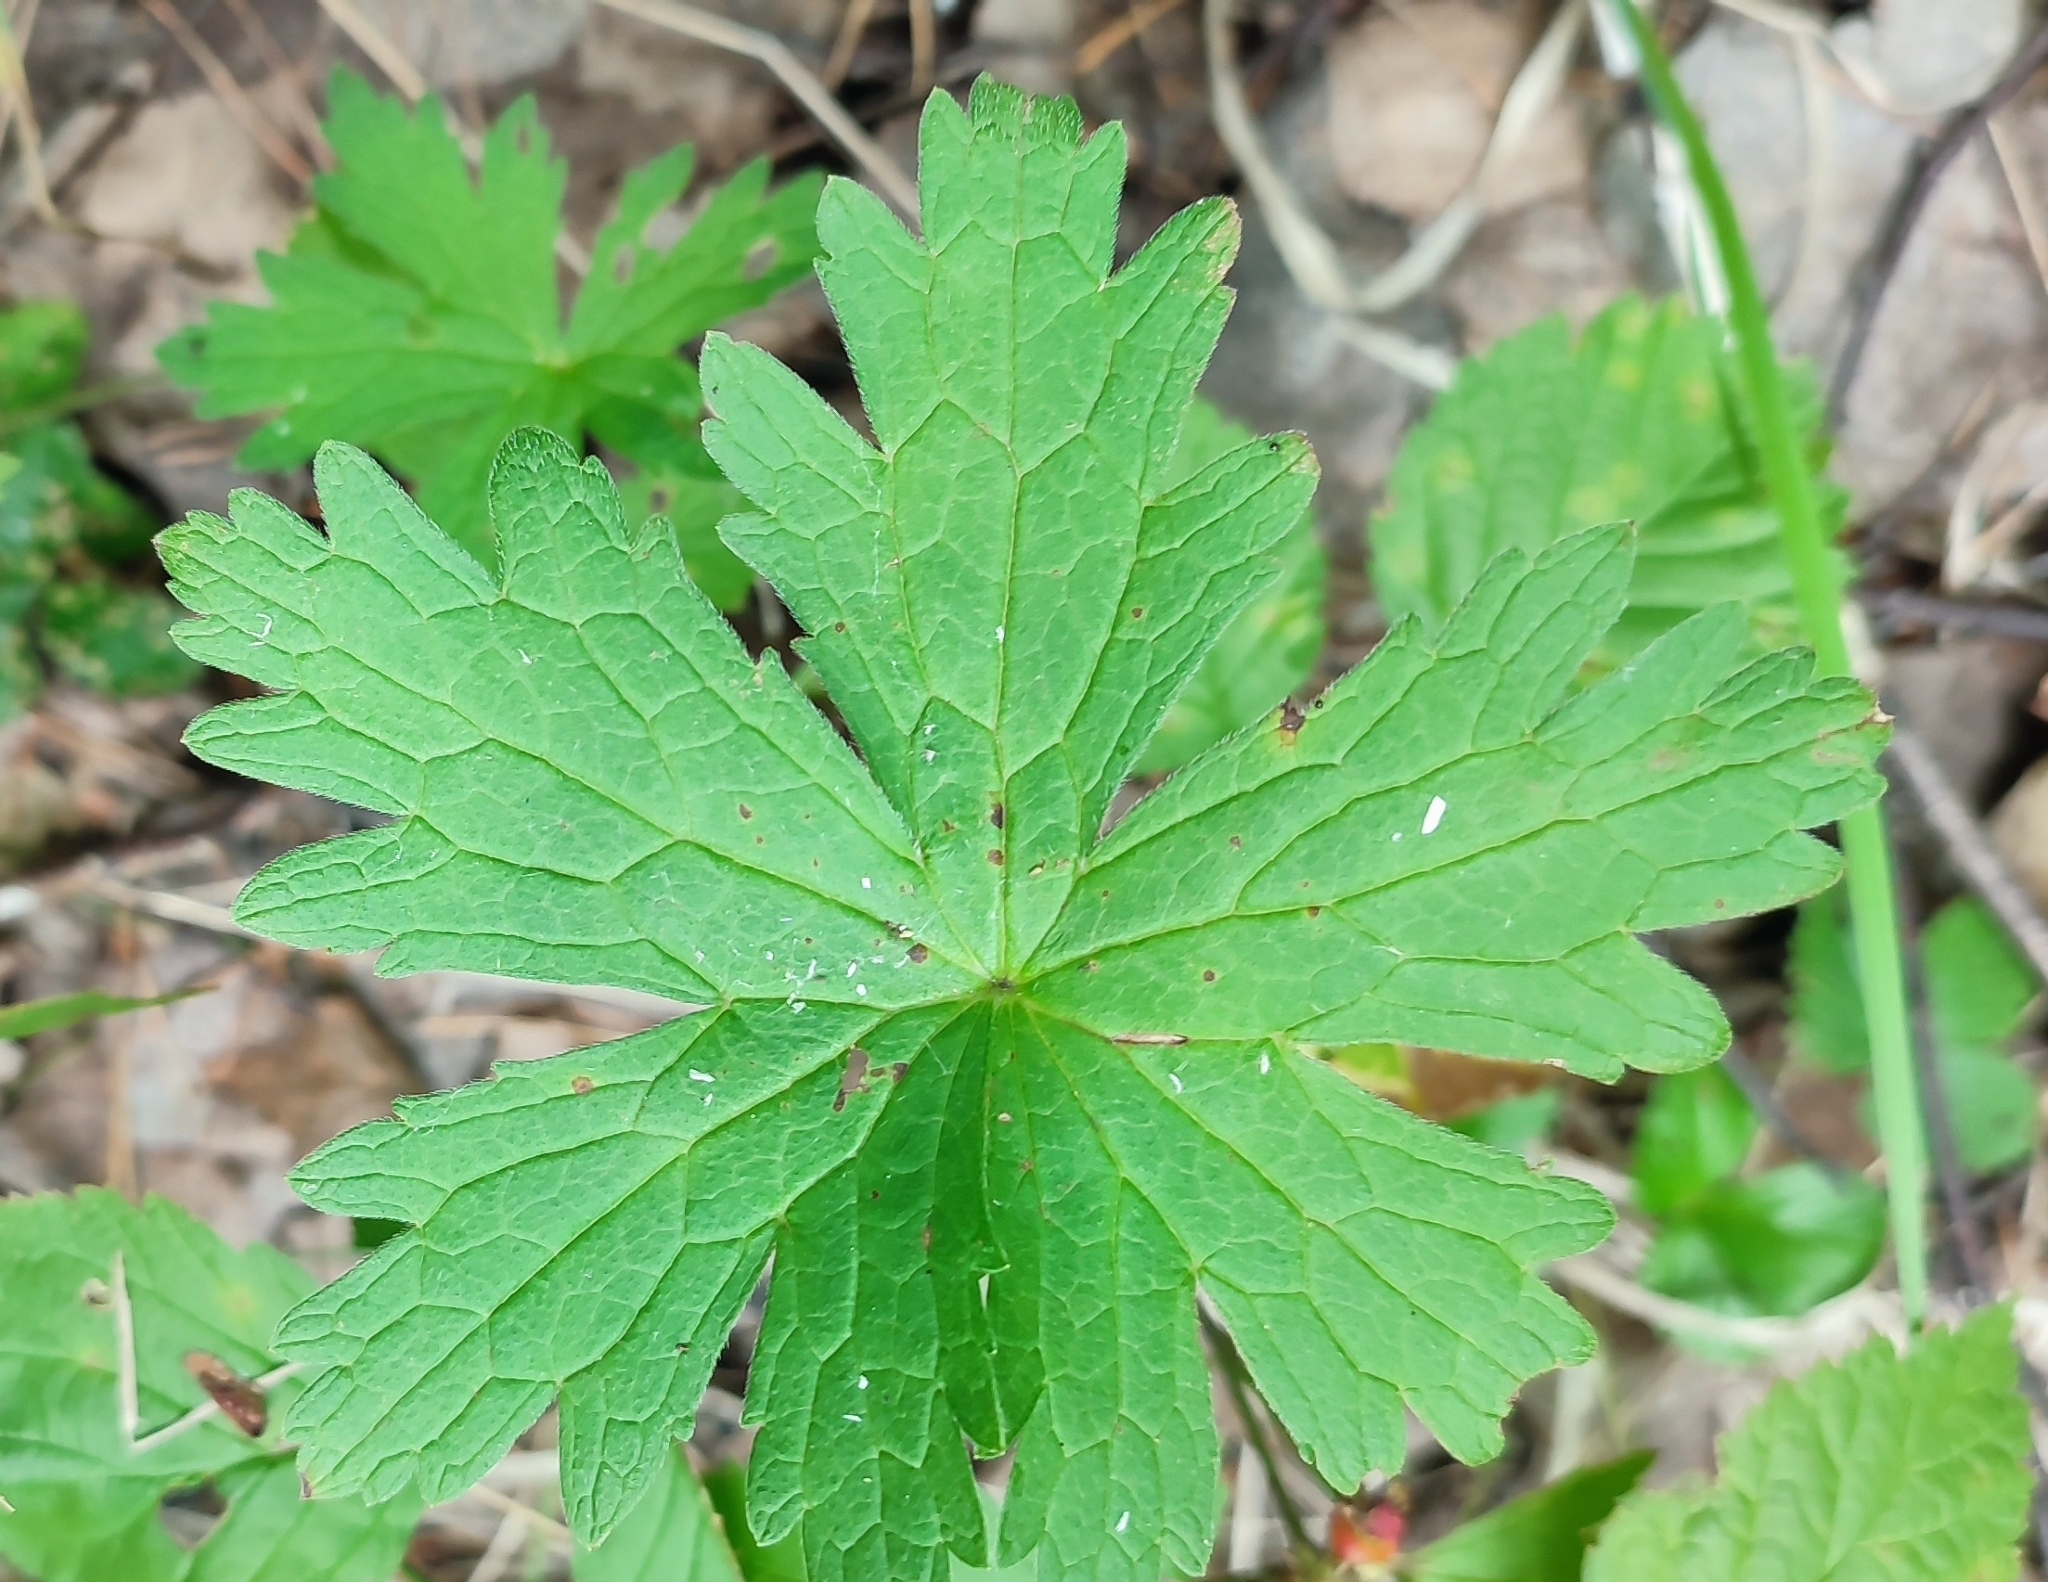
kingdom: Plantae
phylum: Tracheophyta
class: Magnoliopsida
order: Geraniales
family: Geraniaceae
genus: Geranium
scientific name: Geranium sylvaticum
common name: Wood crane's-bill
